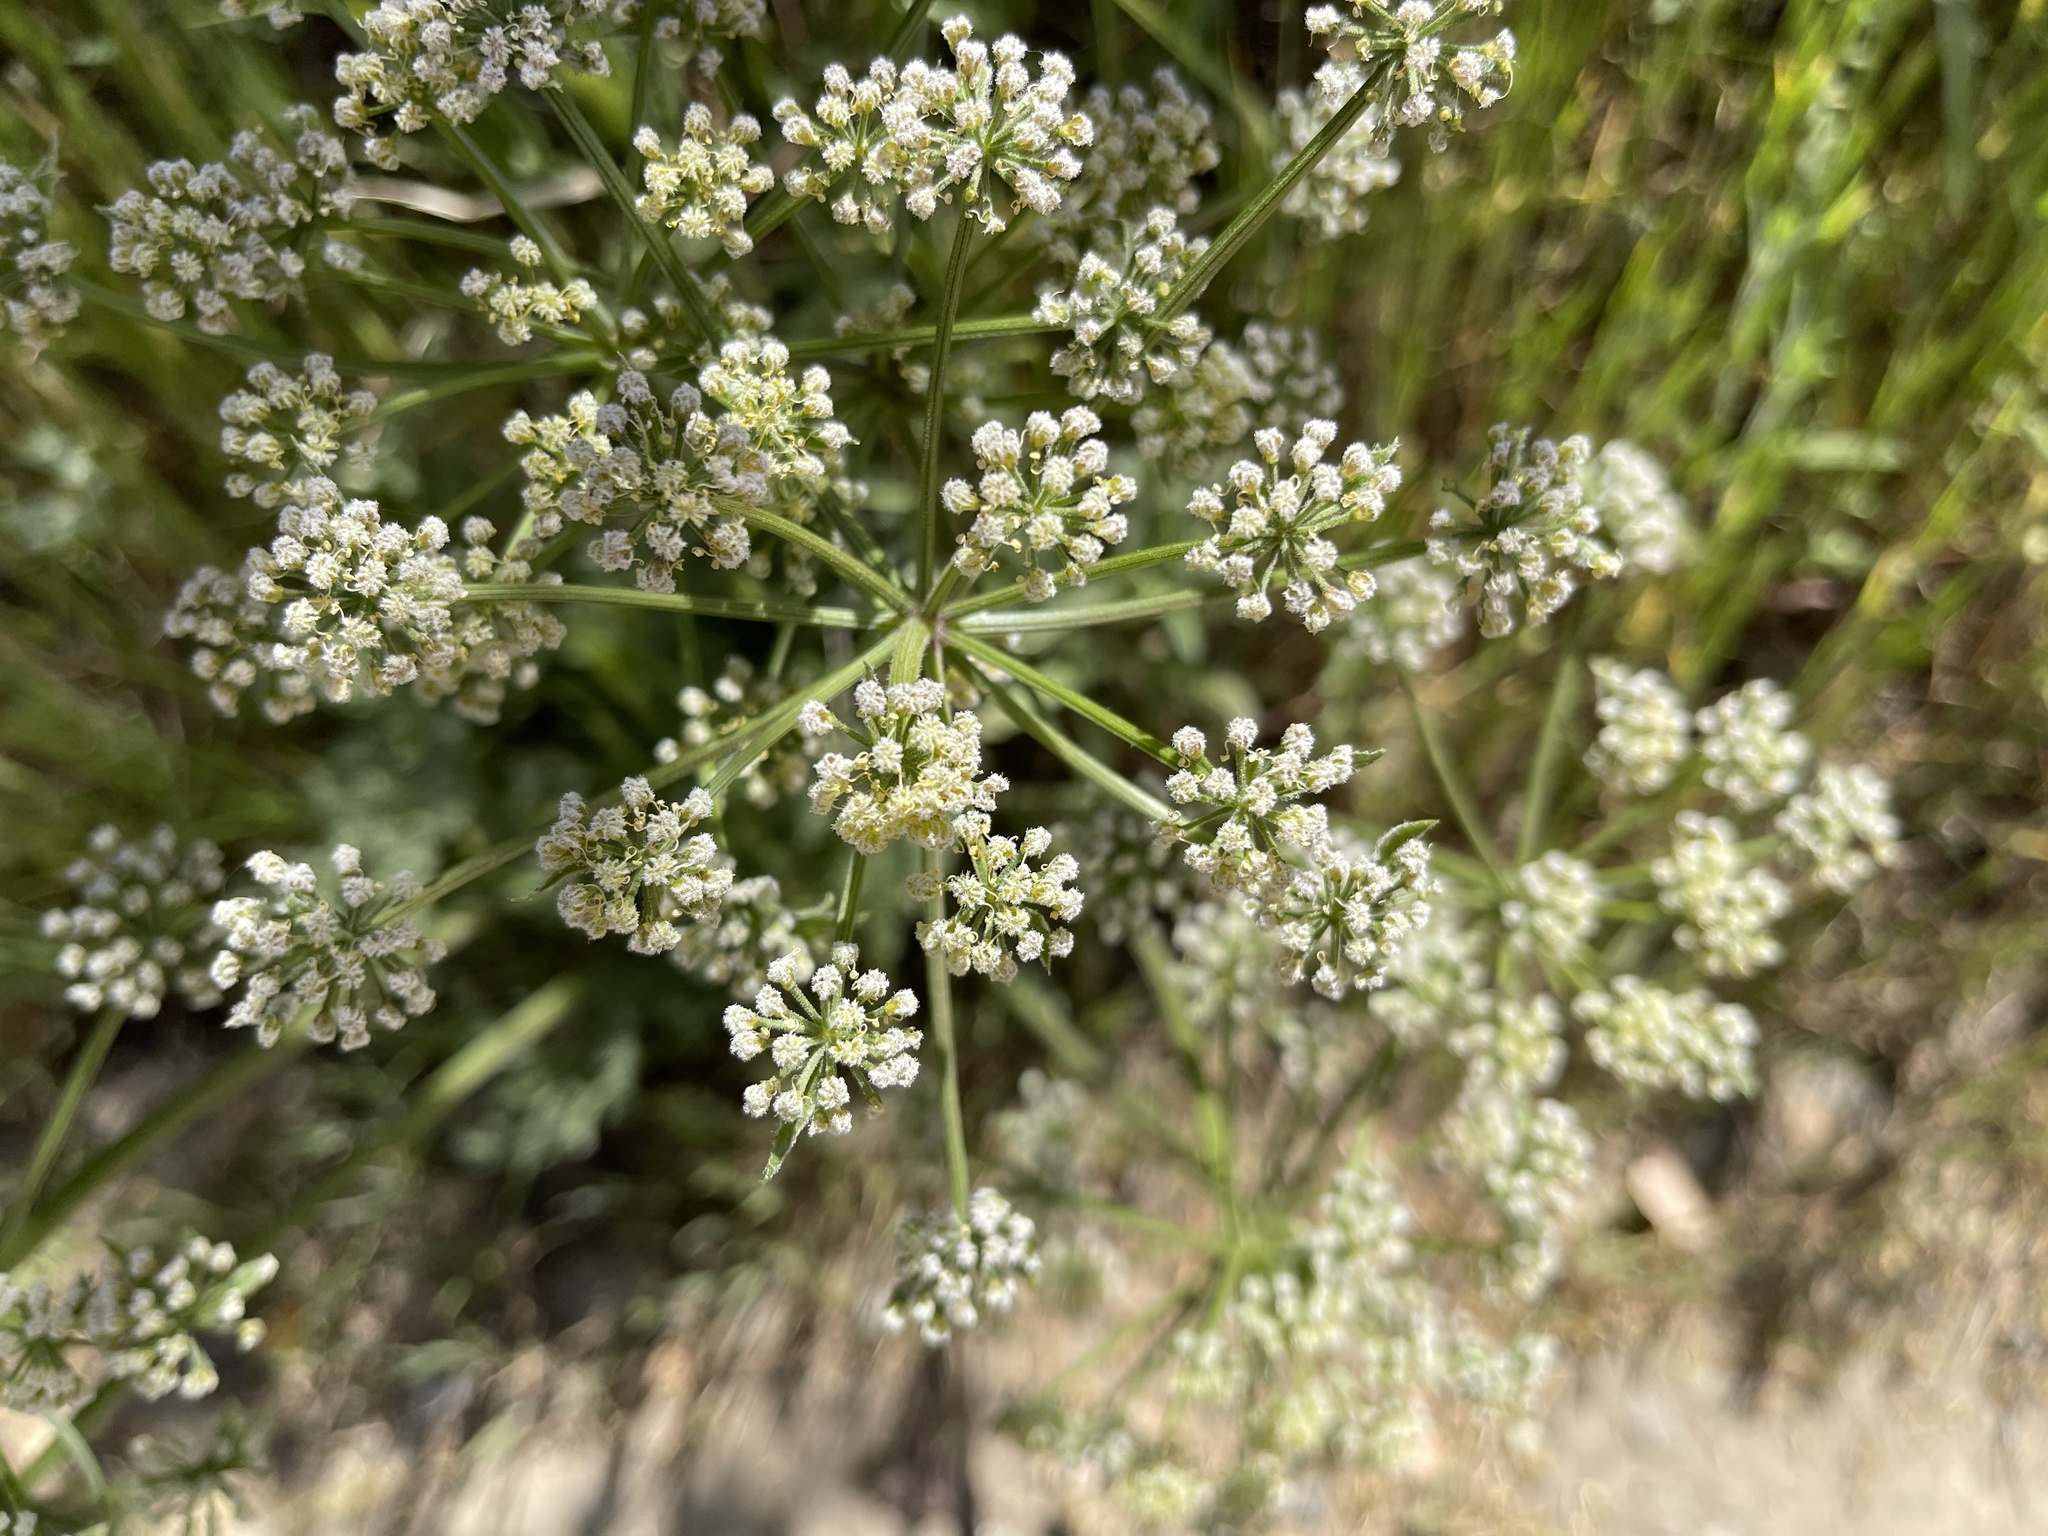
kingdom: Plantae
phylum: Tracheophyta
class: Magnoliopsida
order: Apiales
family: Apiaceae
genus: Lomatium
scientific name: Lomatium dasycarpum
